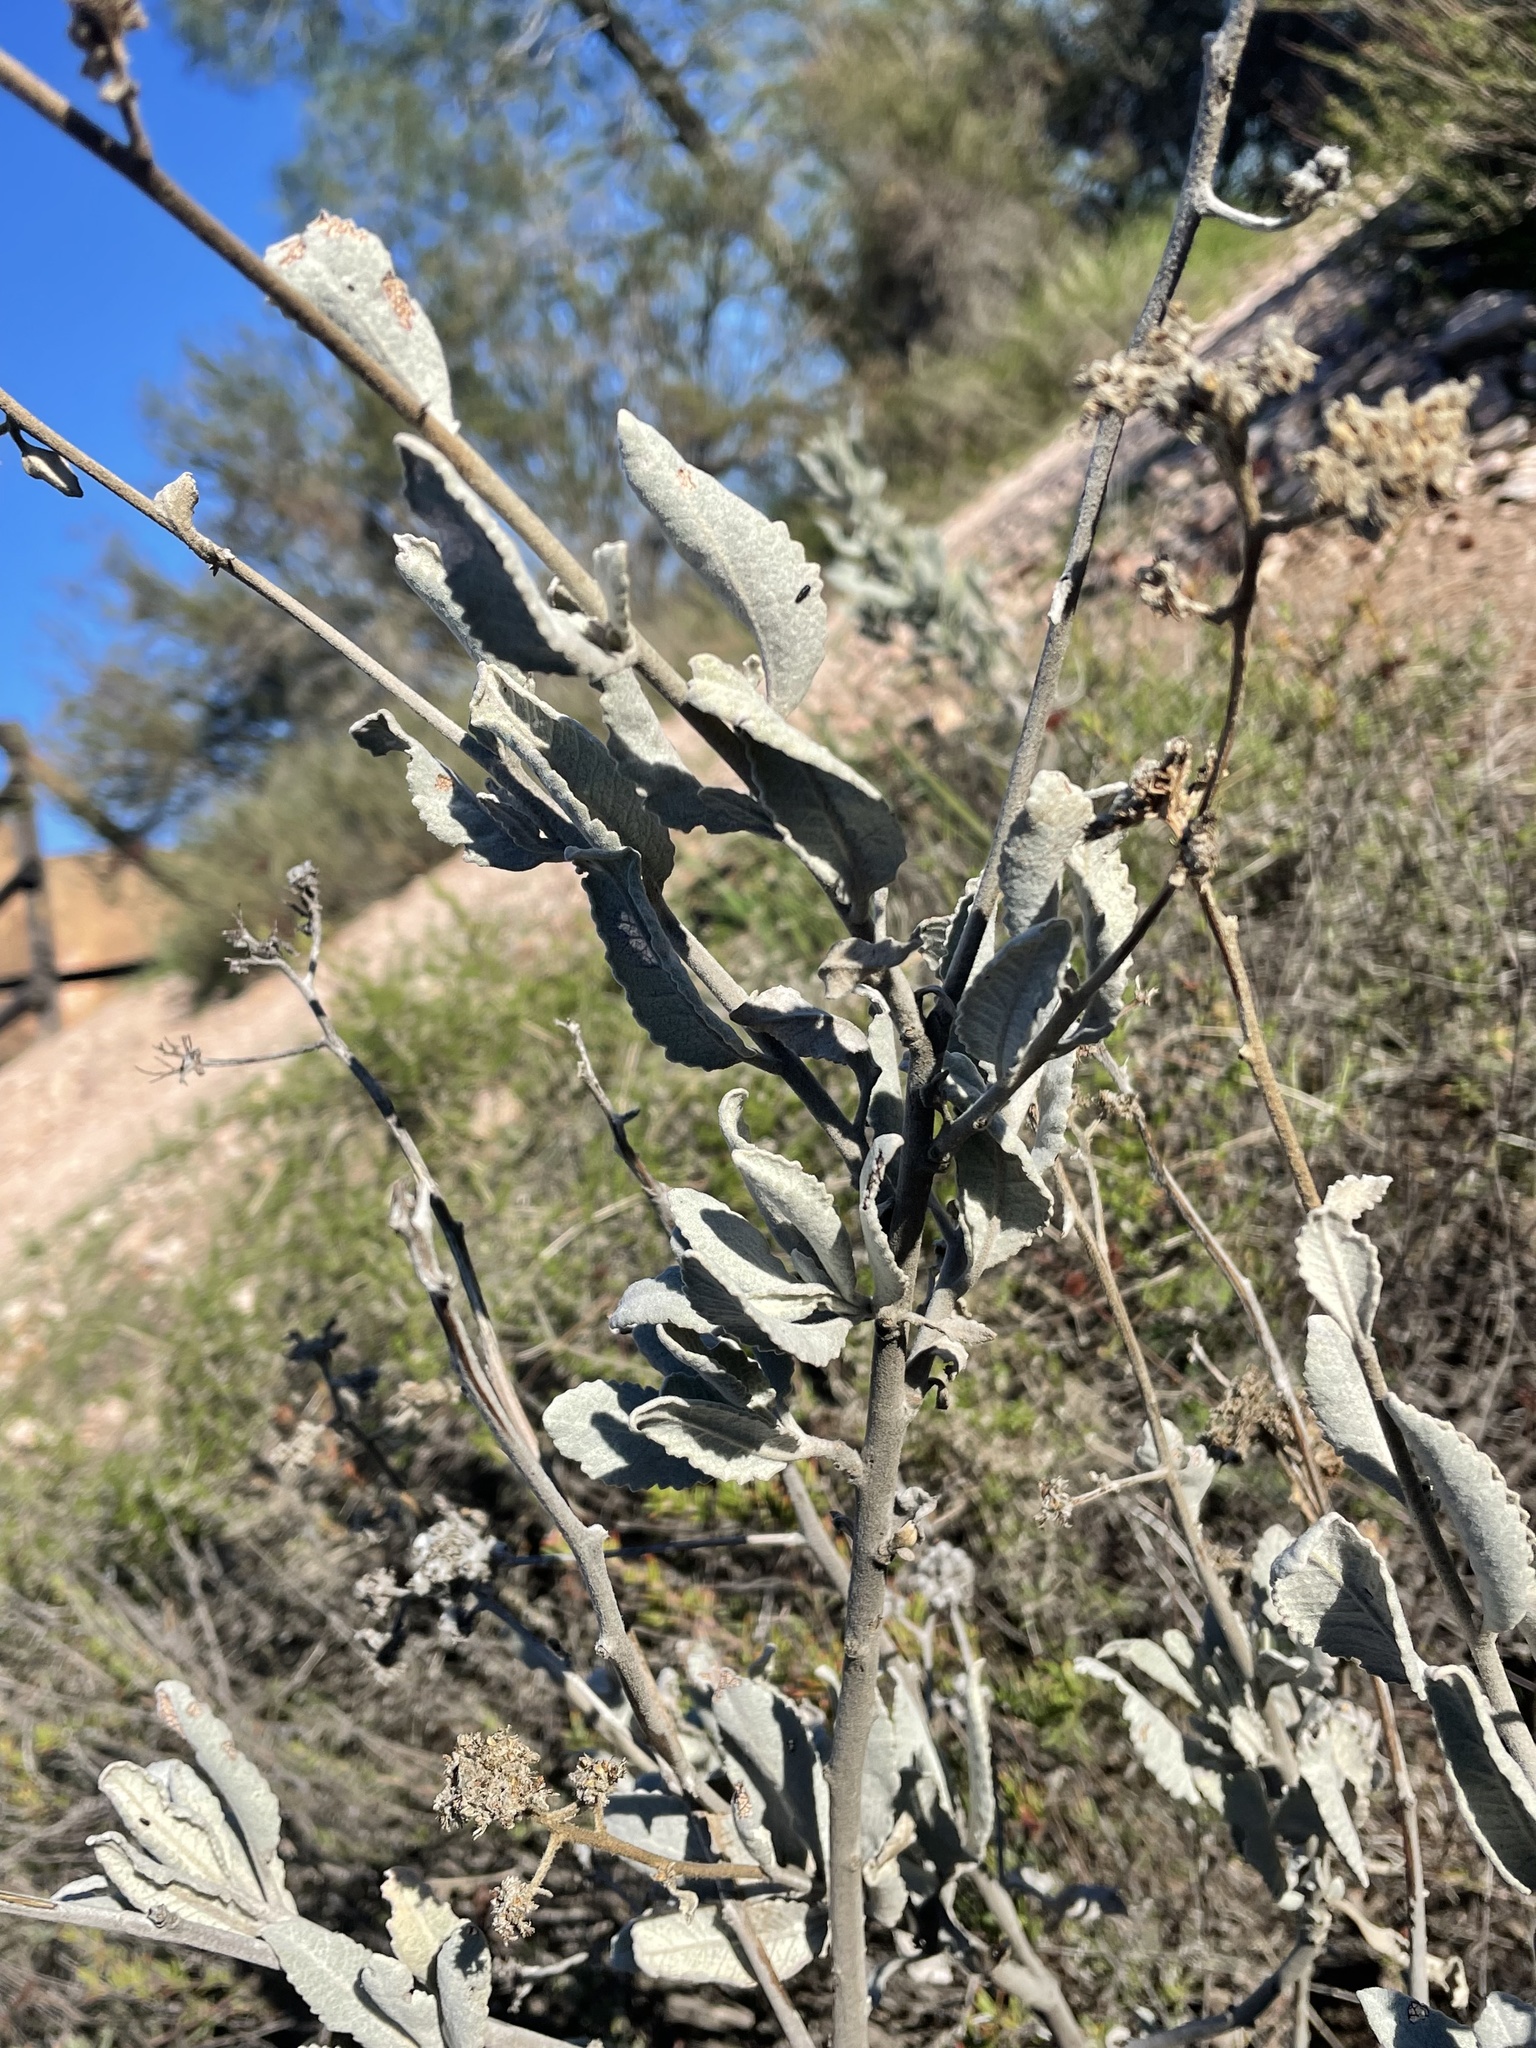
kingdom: Plantae
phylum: Tracheophyta
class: Magnoliopsida
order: Boraginales
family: Namaceae
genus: Eriodictyon
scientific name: Eriodictyon tomentosum
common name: Woolly yerba-santa
